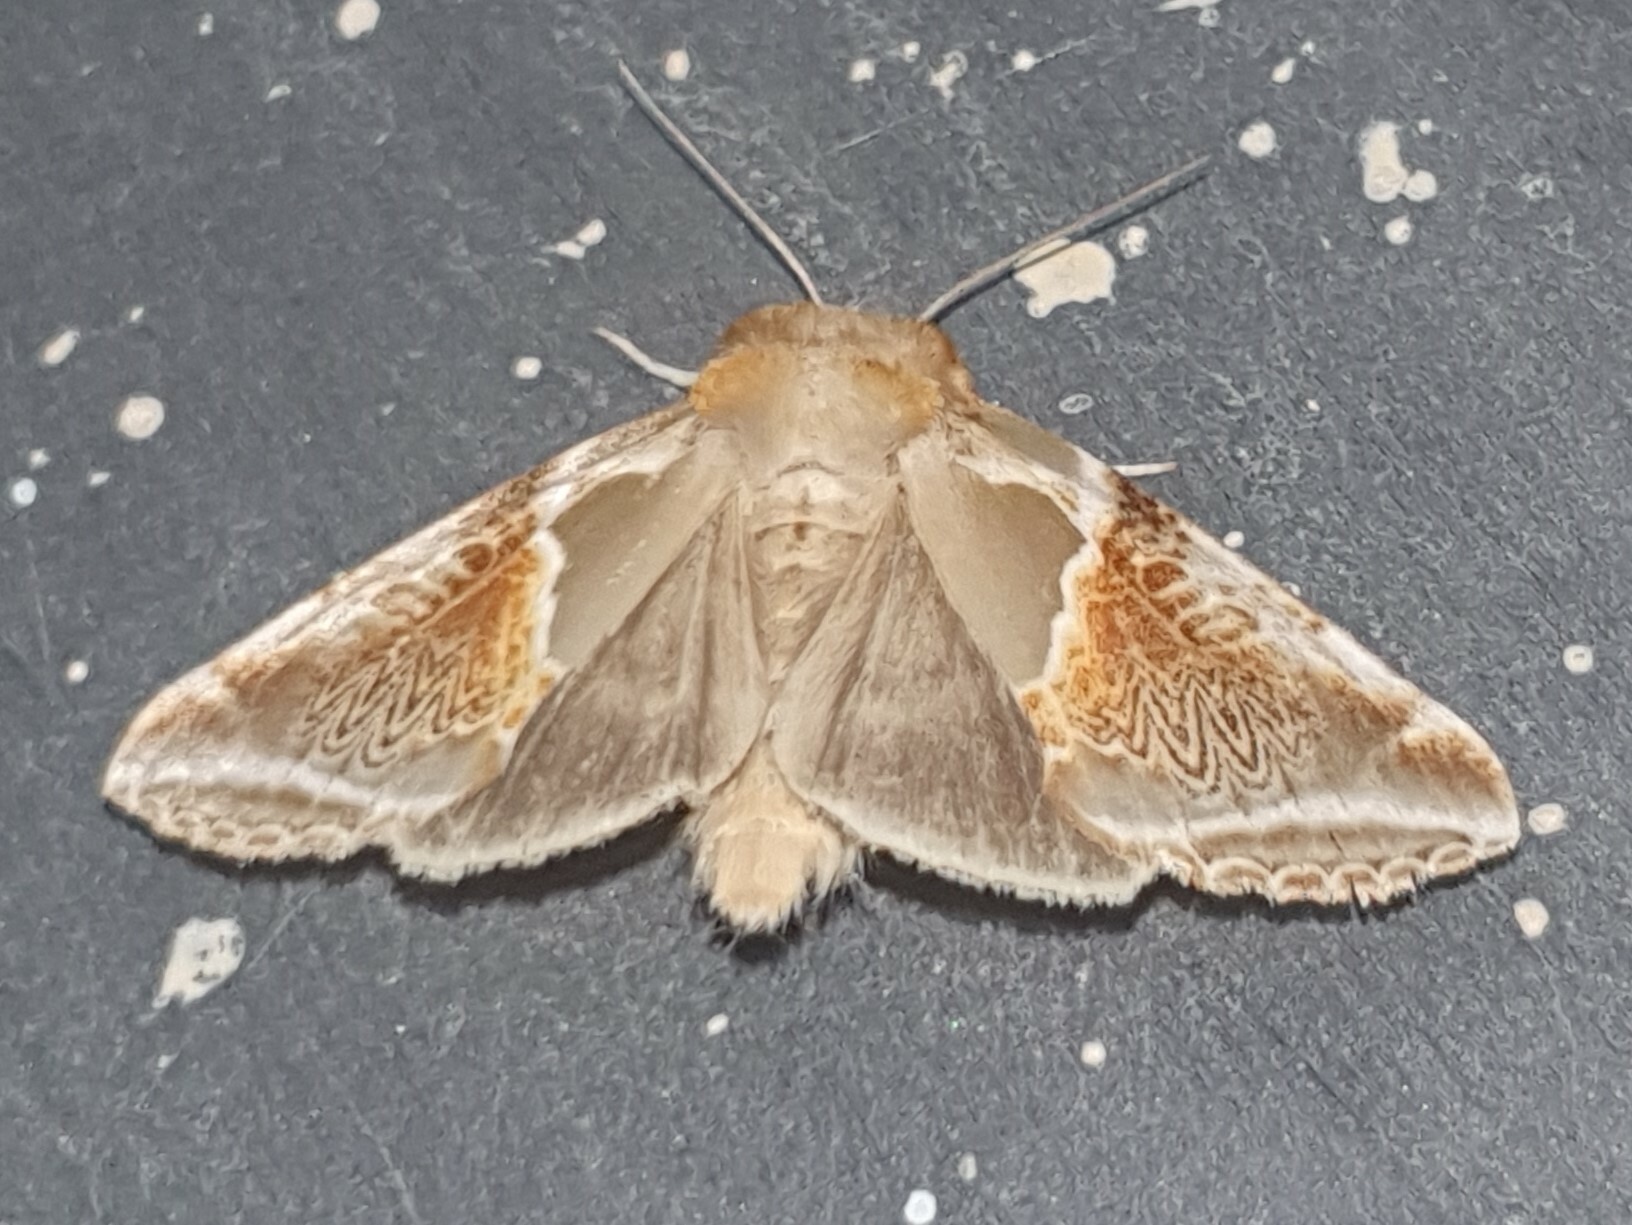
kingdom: Animalia
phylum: Arthropoda
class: Insecta
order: Lepidoptera
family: Drepanidae
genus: Habrosyne
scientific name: Habrosyne pyritoides
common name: Buff arches
